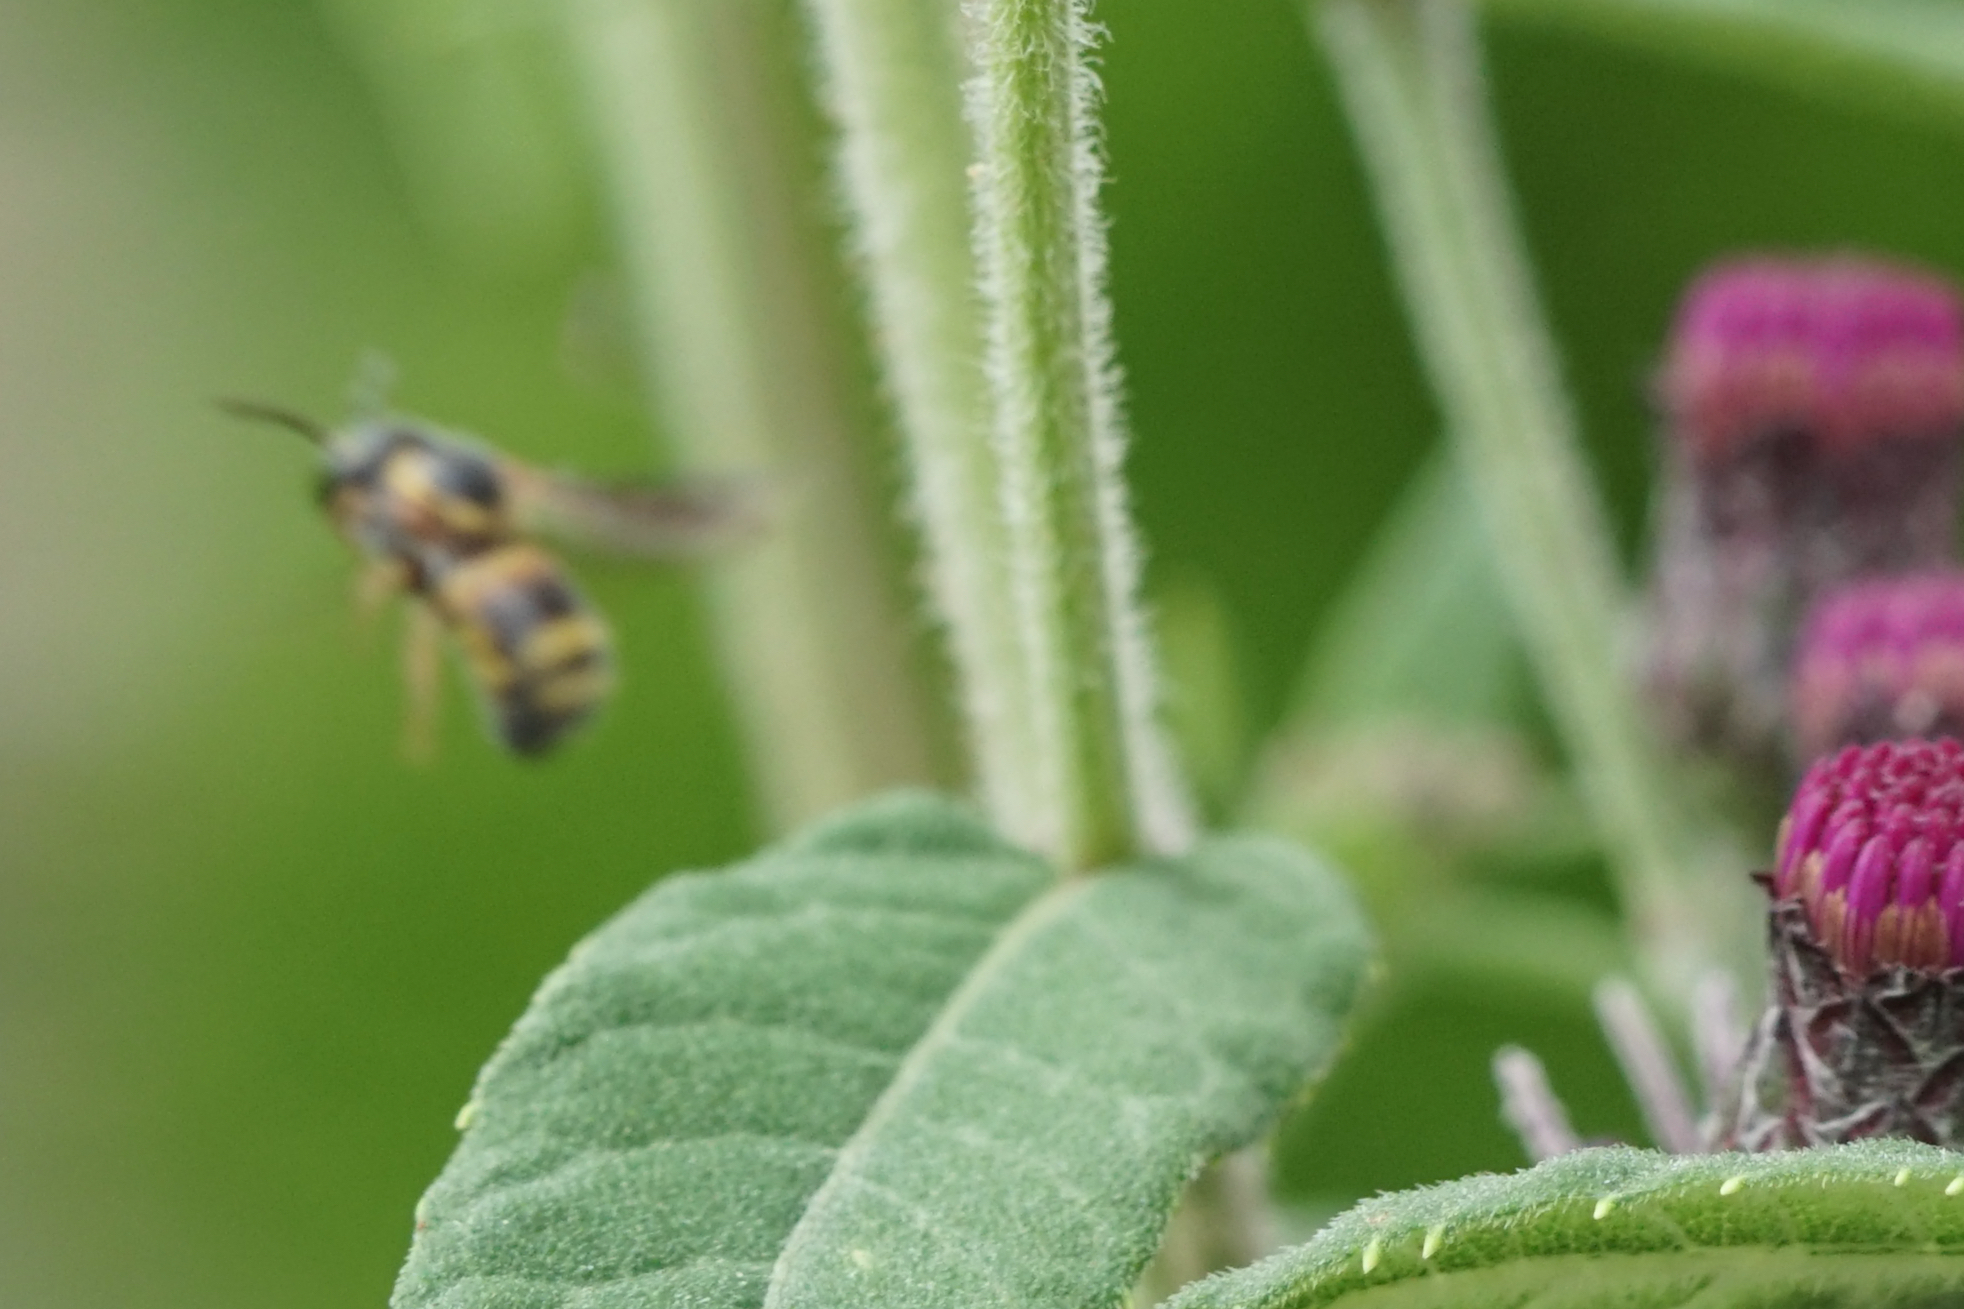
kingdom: Animalia
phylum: Arthropoda
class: Insecta
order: Hymenoptera
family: Megachilidae
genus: Stelis
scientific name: Stelis louisae
